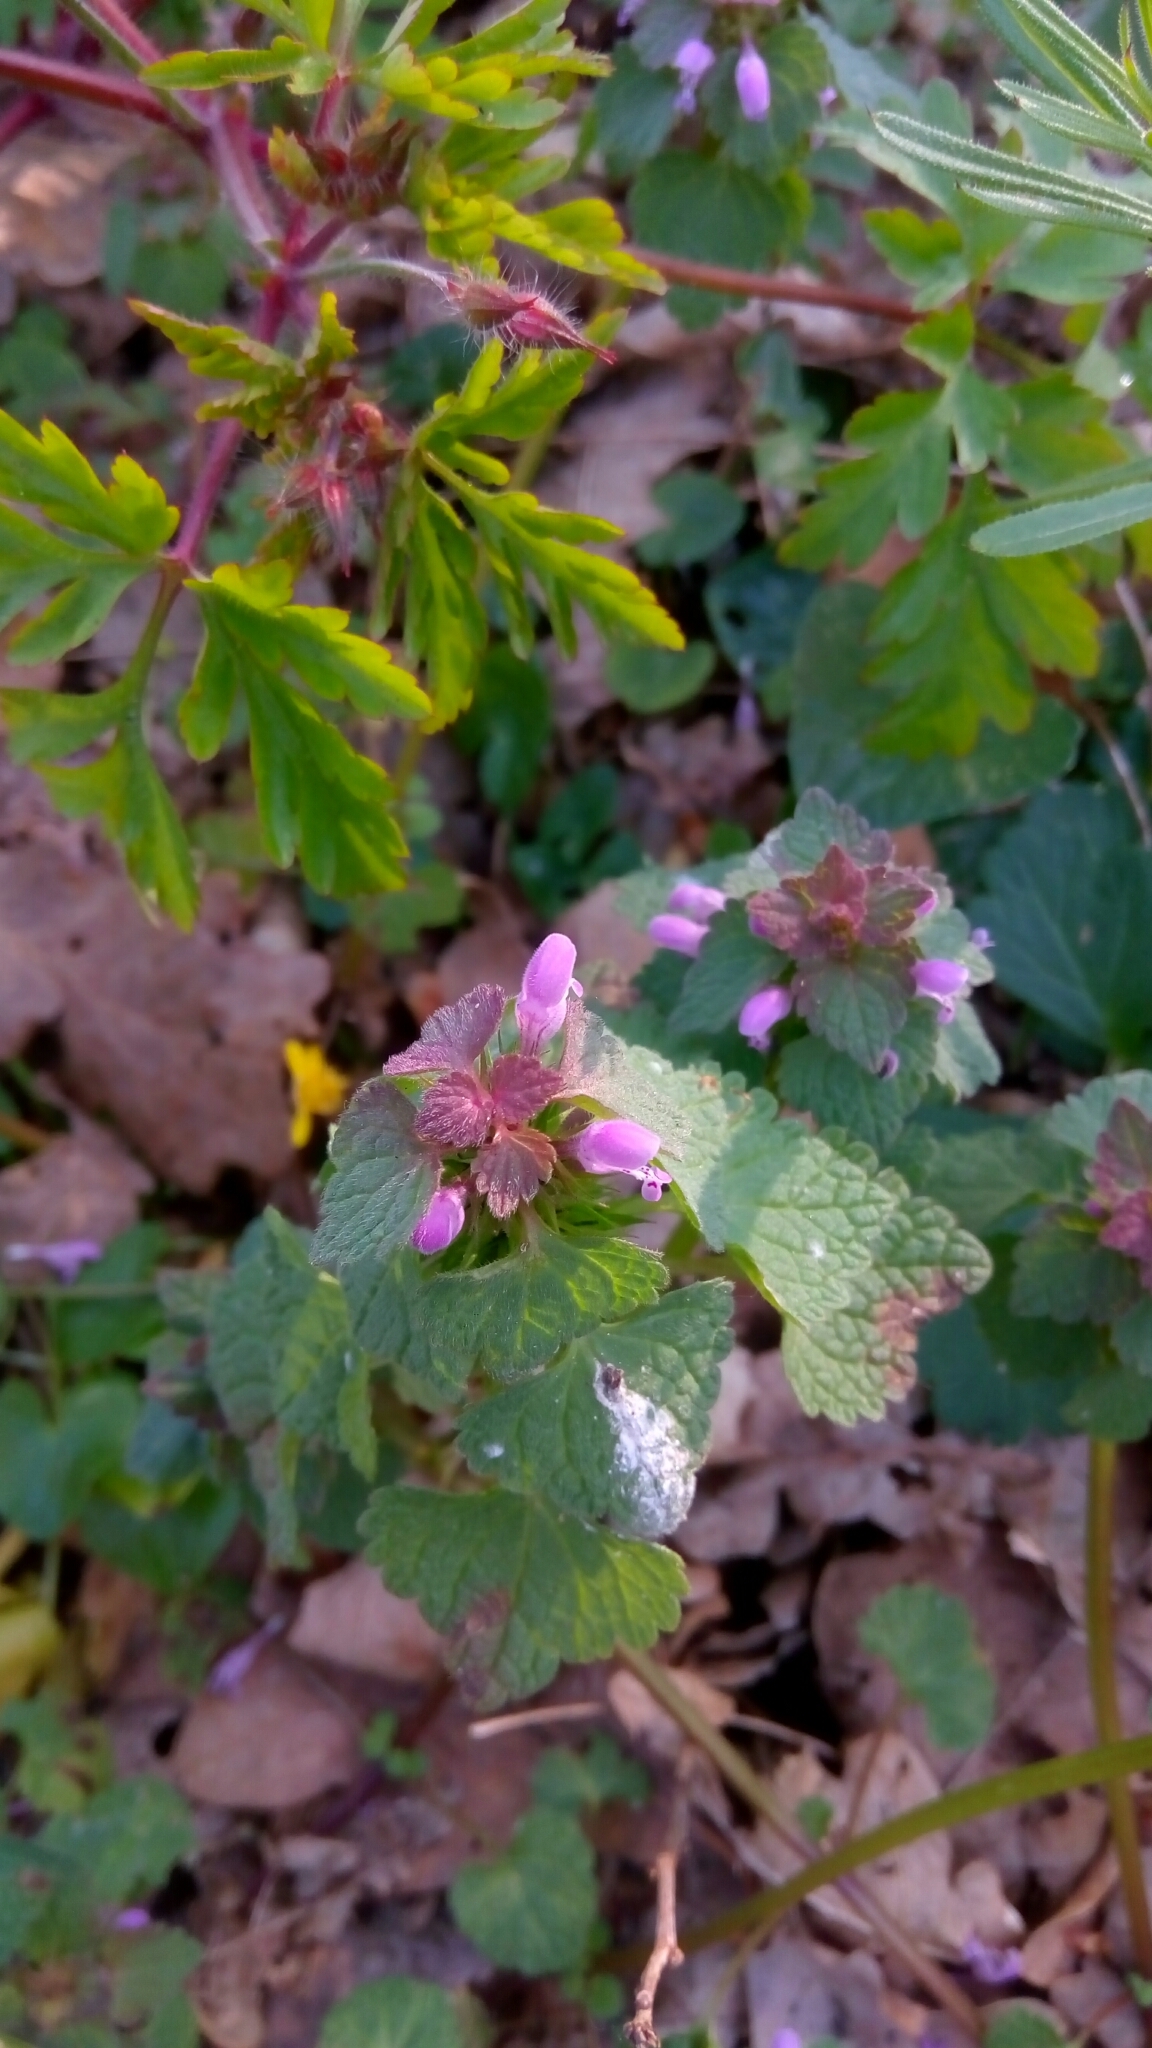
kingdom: Plantae
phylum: Tracheophyta
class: Magnoliopsida
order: Lamiales
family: Lamiaceae
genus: Lamium
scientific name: Lamium purpureum
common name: Red dead-nettle
